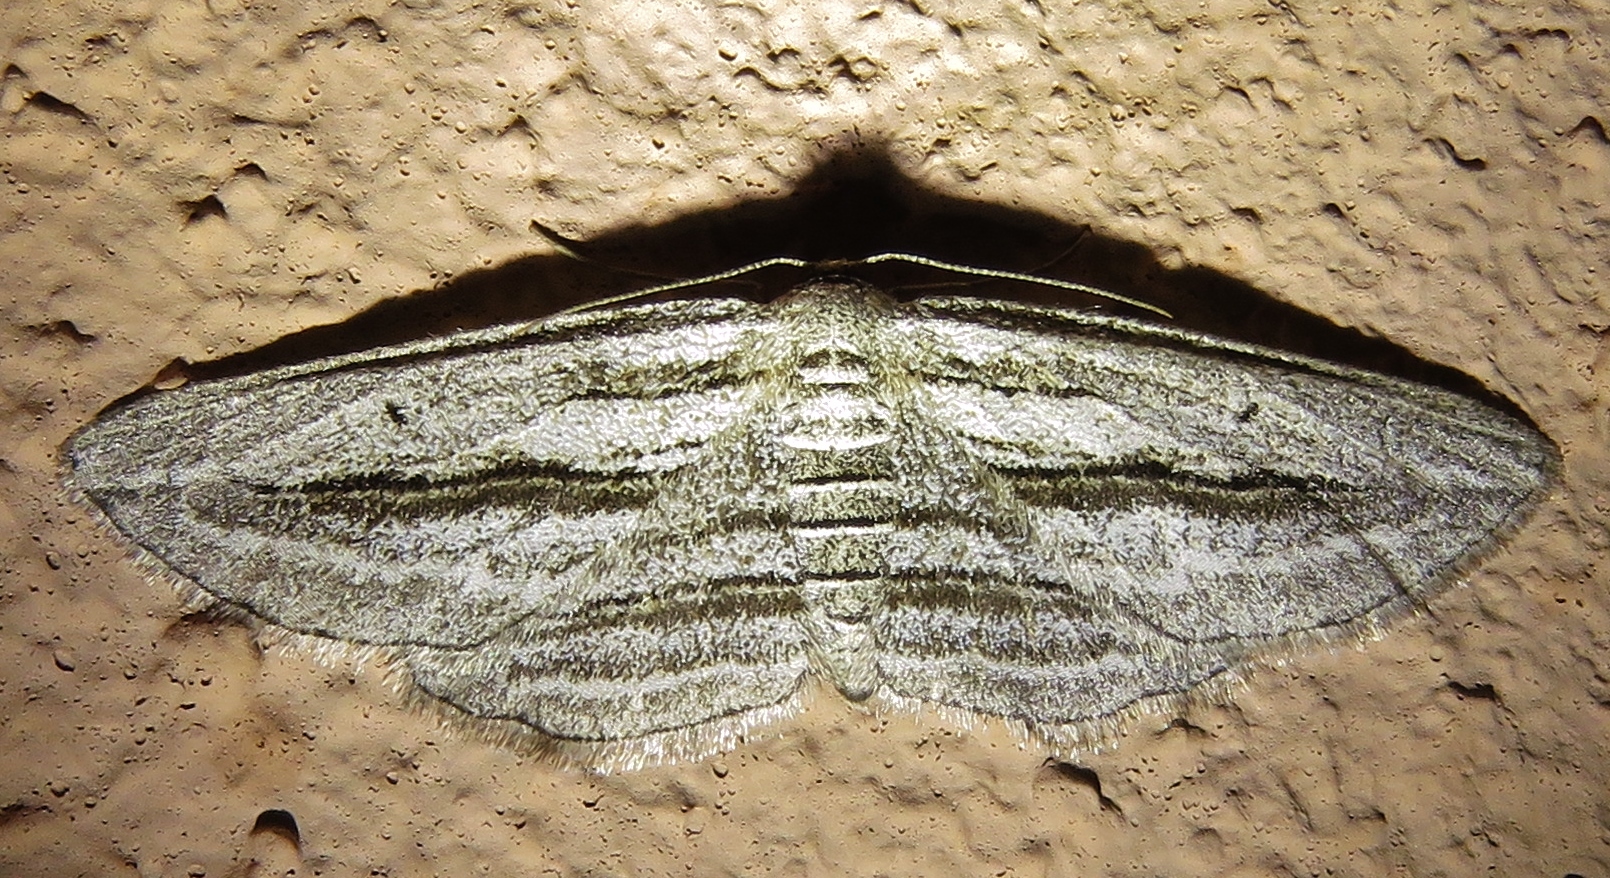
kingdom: Animalia
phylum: Arthropoda
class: Insecta
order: Lepidoptera
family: Geometridae
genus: Glena
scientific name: Glena quinquelinearia
